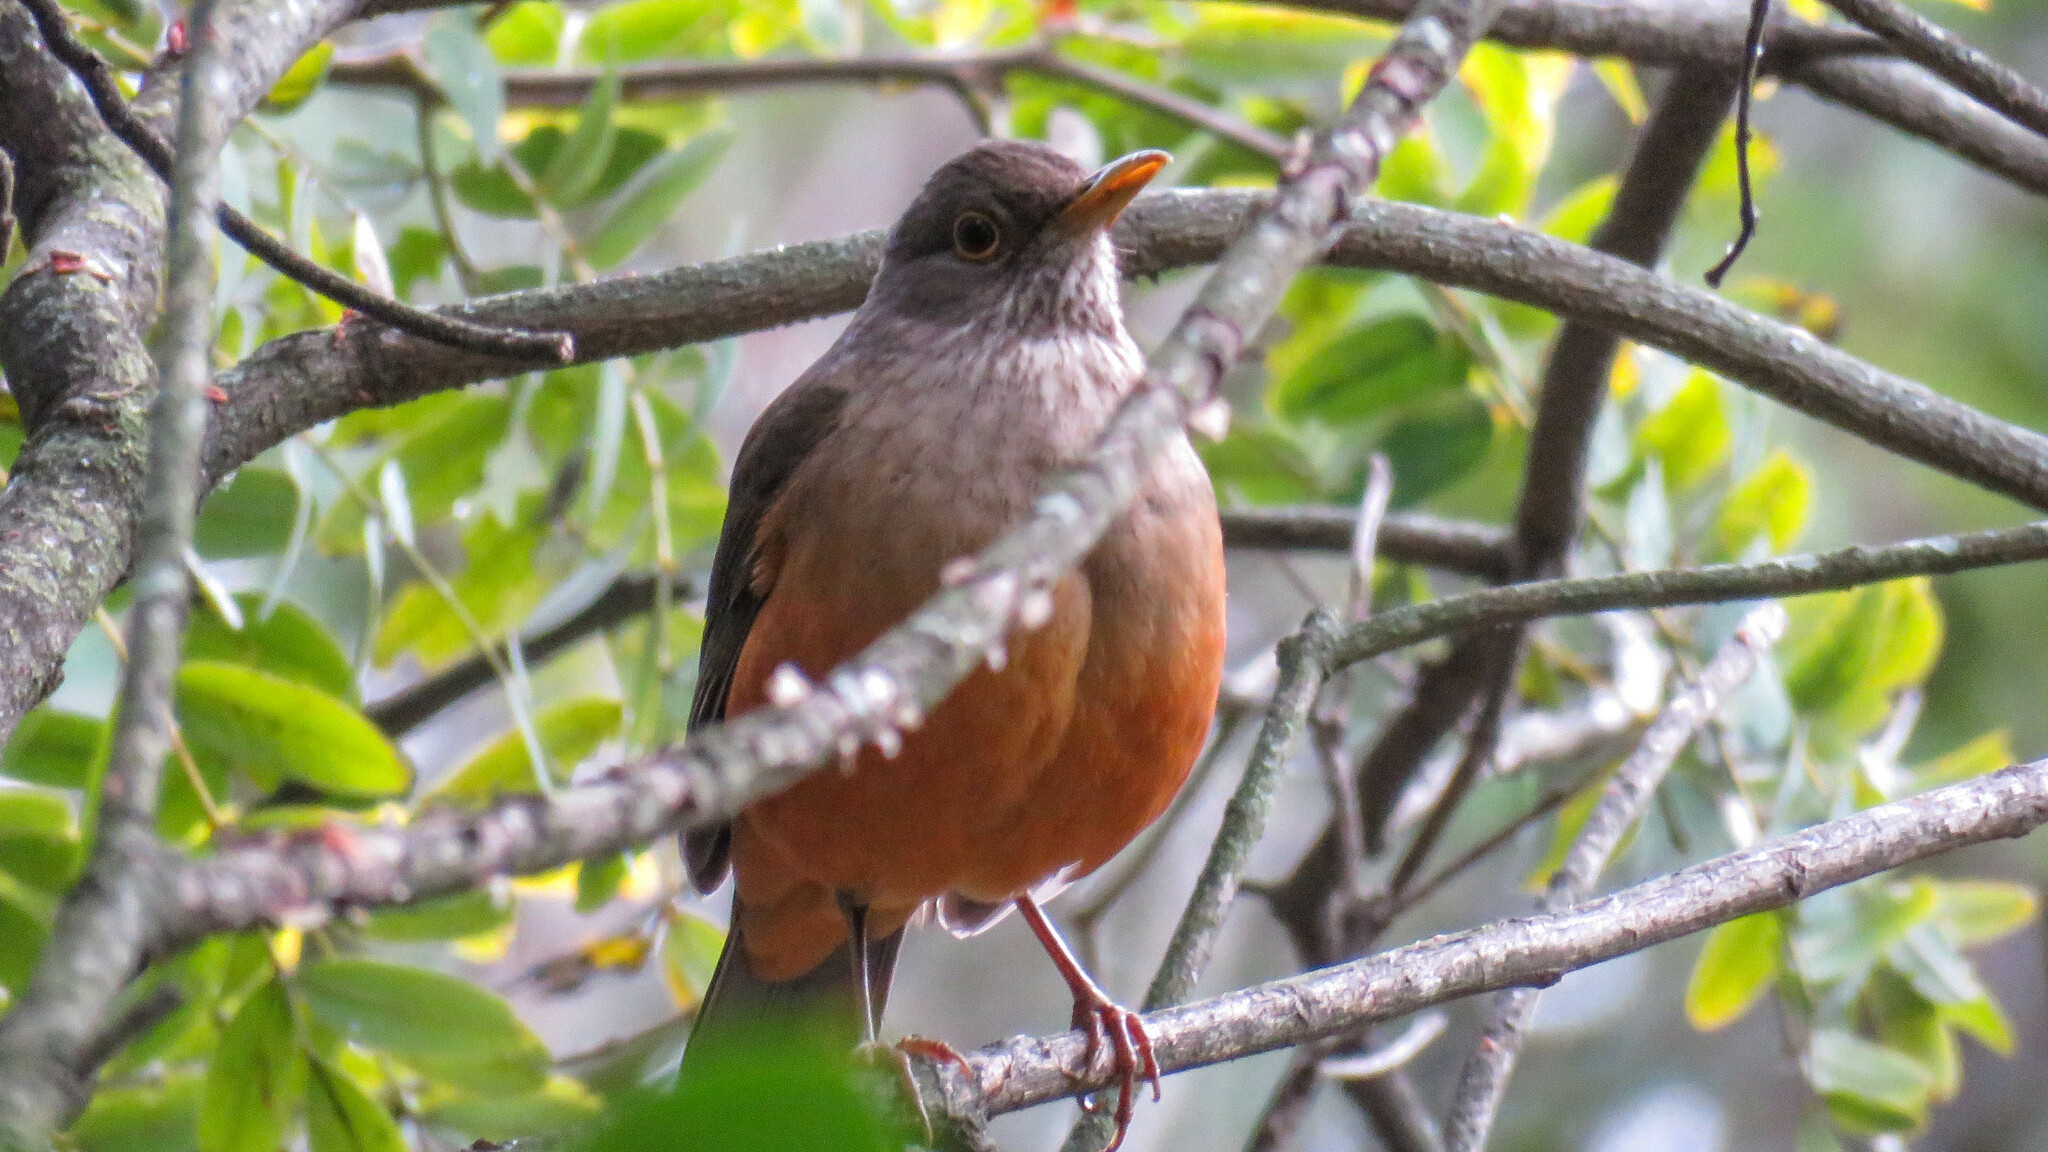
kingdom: Animalia
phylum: Chordata
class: Aves
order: Passeriformes
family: Turdidae
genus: Turdus
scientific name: Turdus rufiventris
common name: Rufous-bellied thrush
